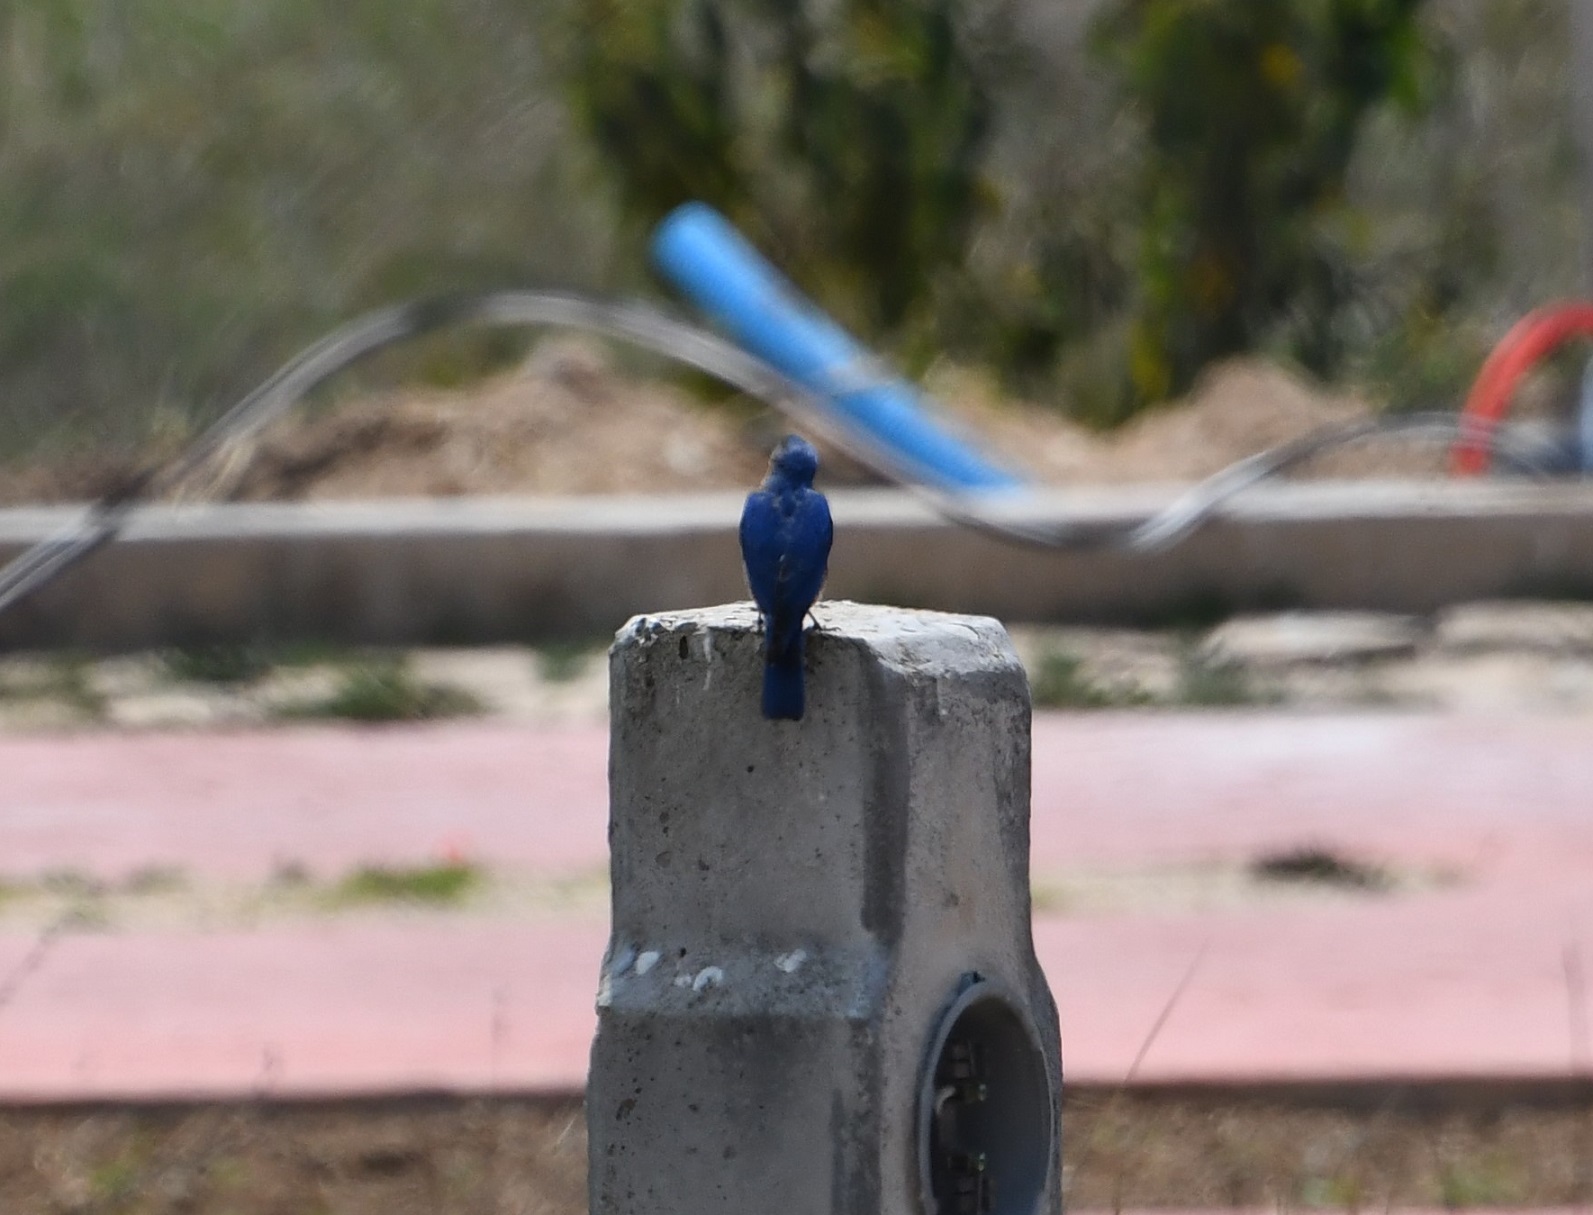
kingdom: Animalia
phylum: Chordata
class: Aves
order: Passeriformes
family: Turdidae
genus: Sialia
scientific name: Sialia sialis
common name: Eastern bluebird
